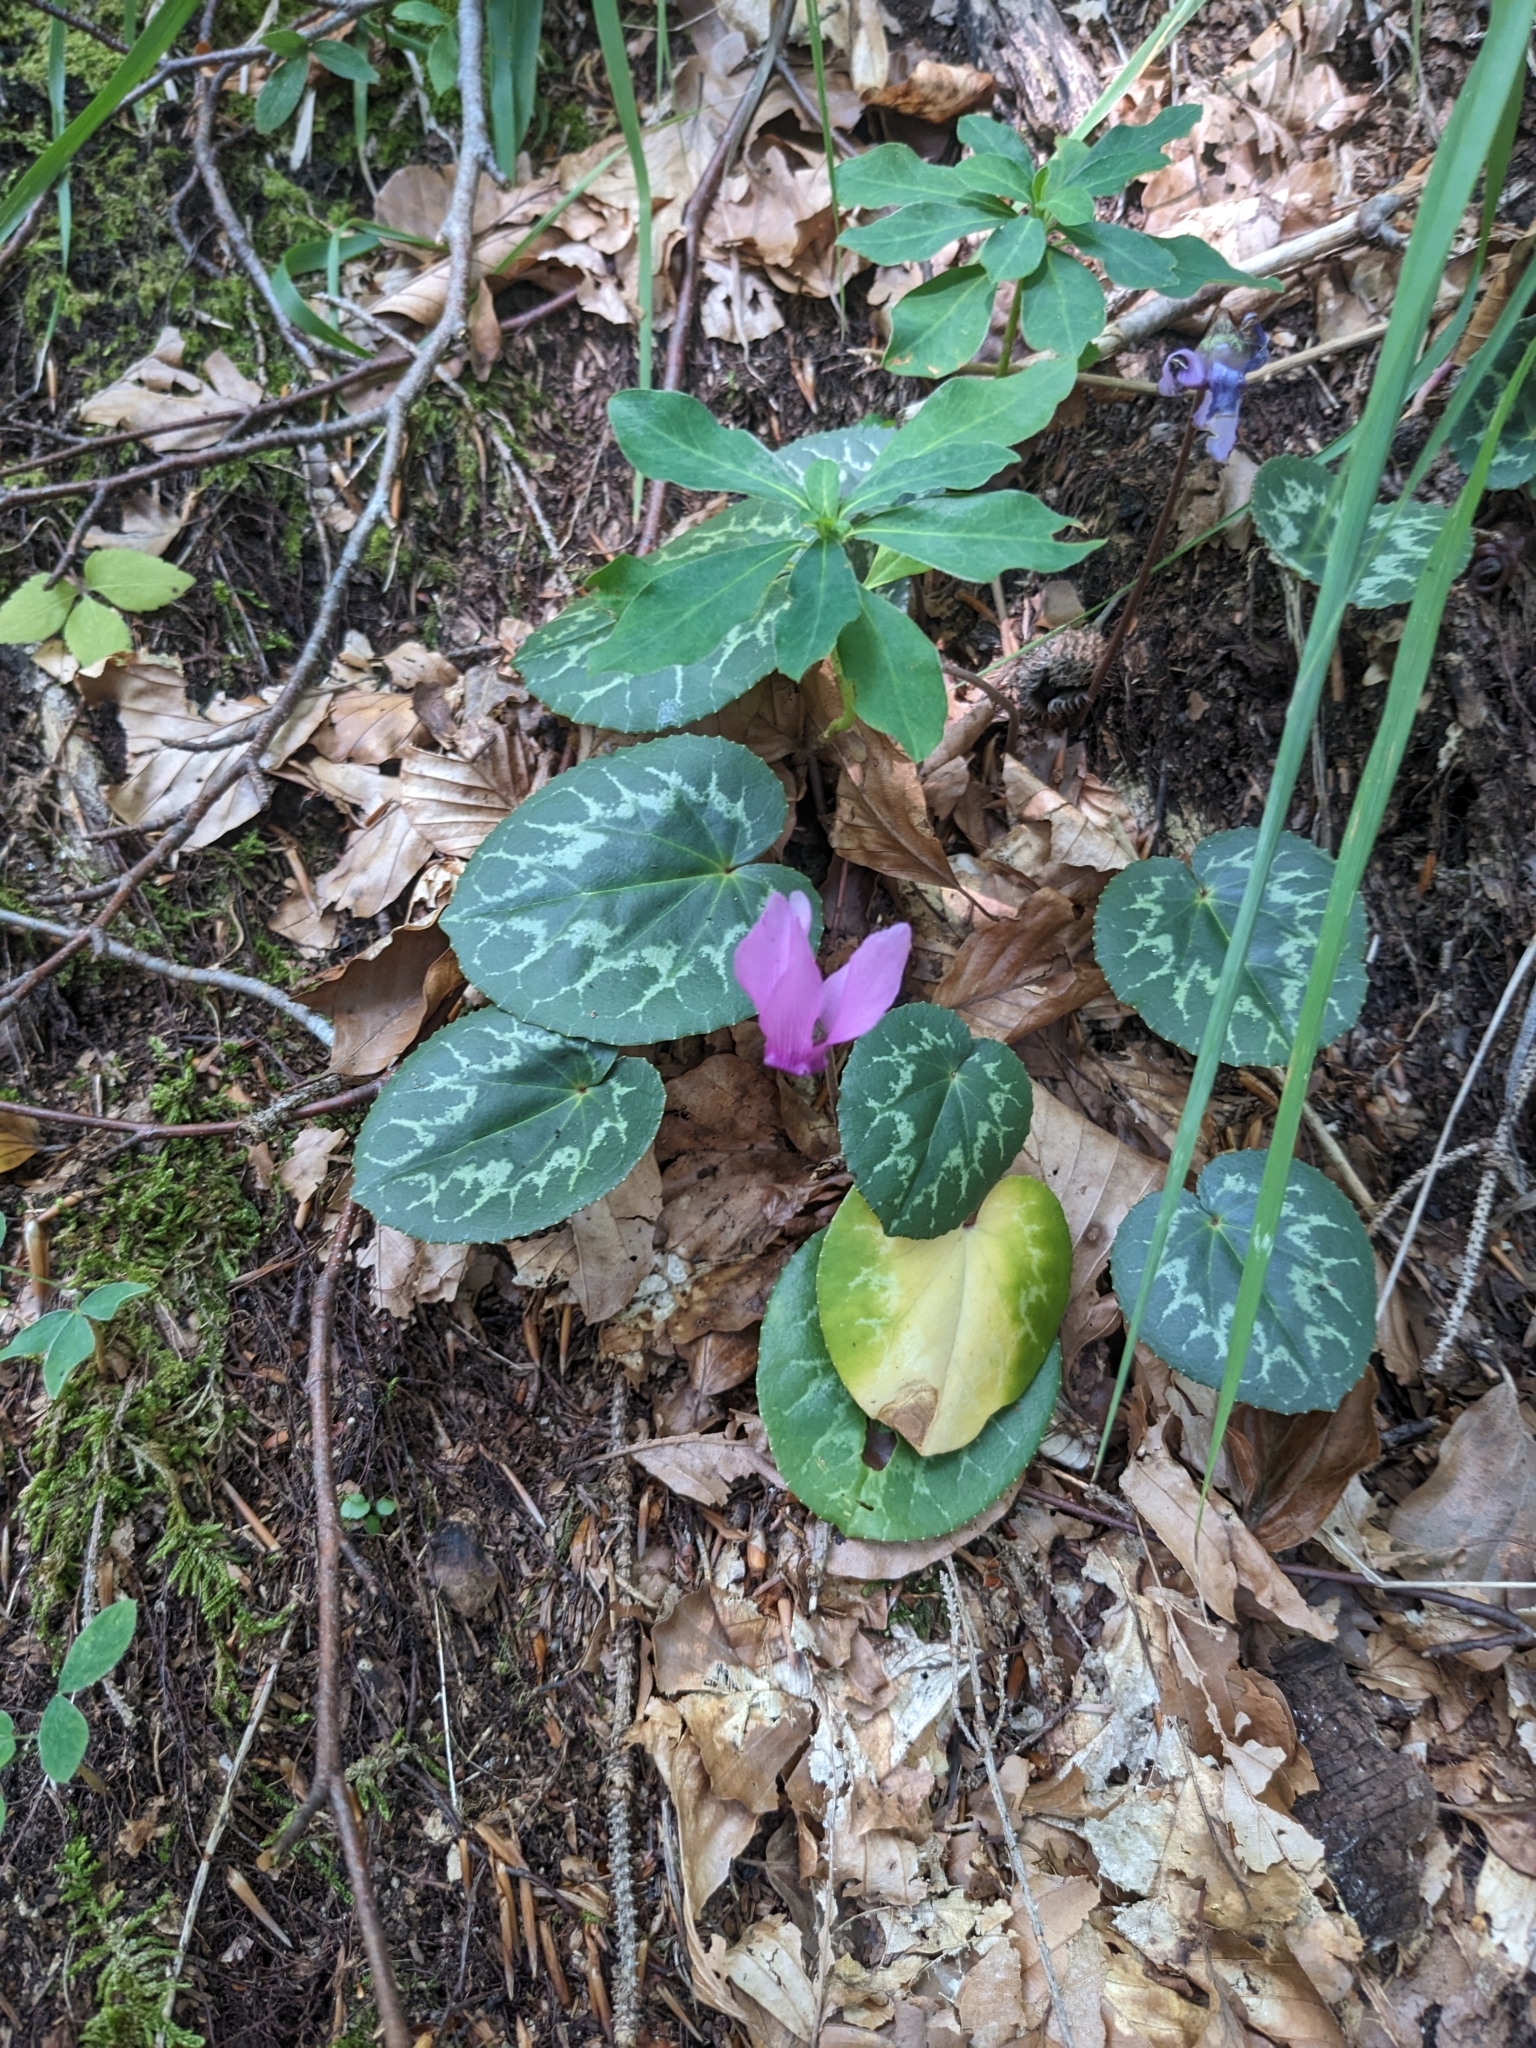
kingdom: Plantae
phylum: Tracheophyta
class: Magnoliopsida
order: Ericales
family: Primulaceae
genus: Cyclamen
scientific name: Cyclamen purpurascens
